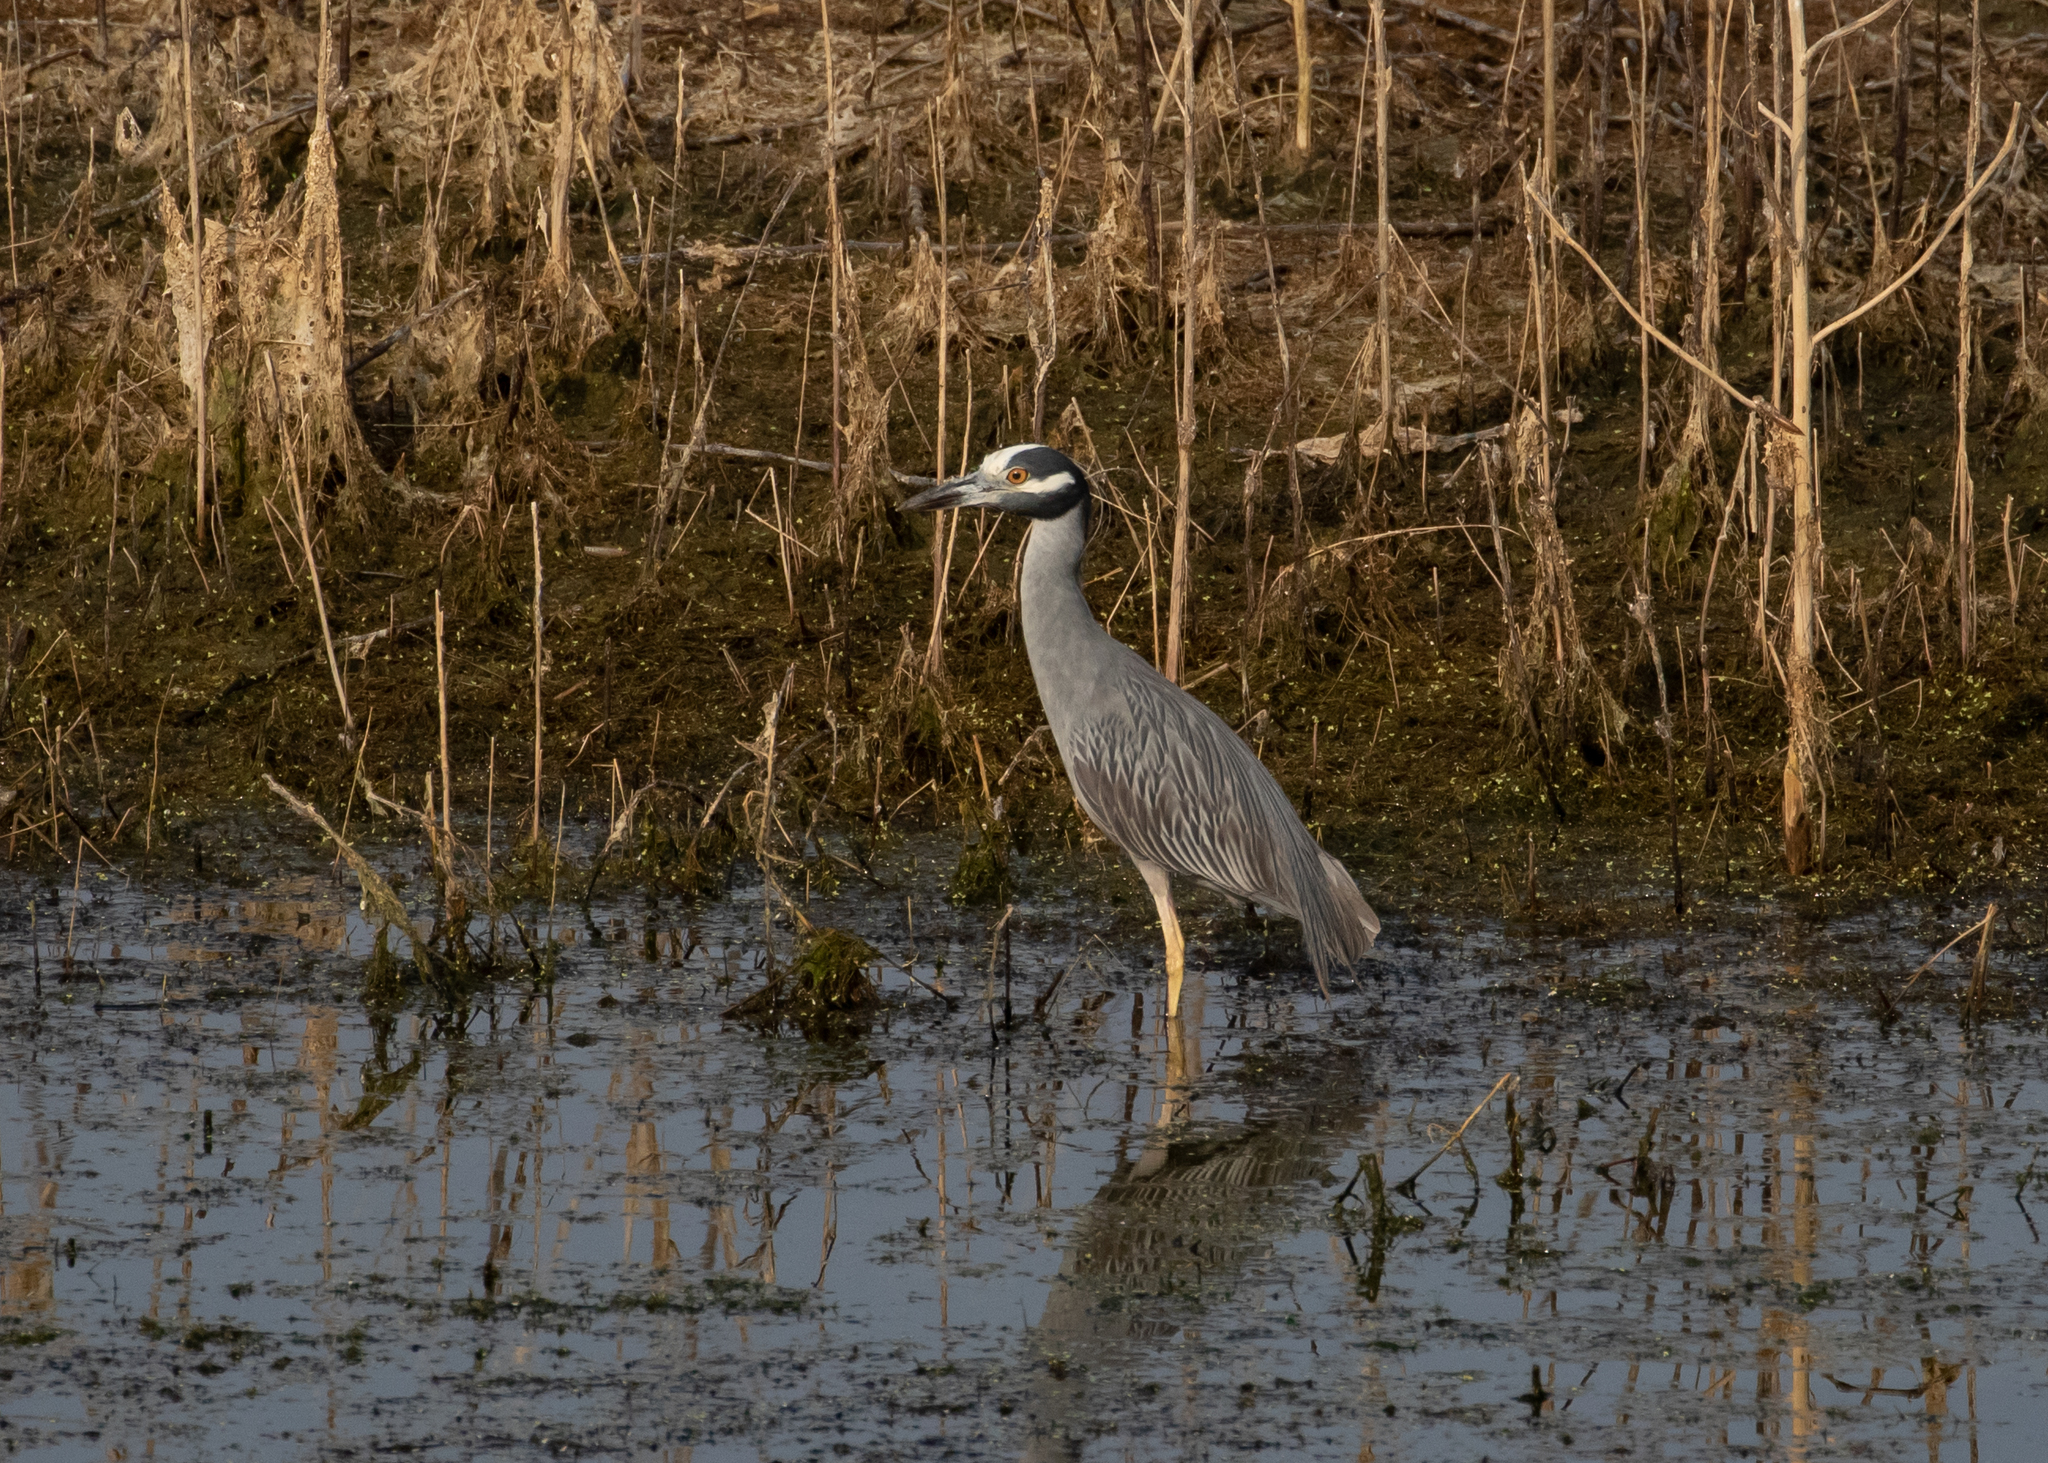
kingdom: Animalia
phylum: Chordata
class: Aves
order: Pelecaniformes
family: Ardeidae
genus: Nyctanassa
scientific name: Nyctanassa violacea
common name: Yellow-crowned night heron
